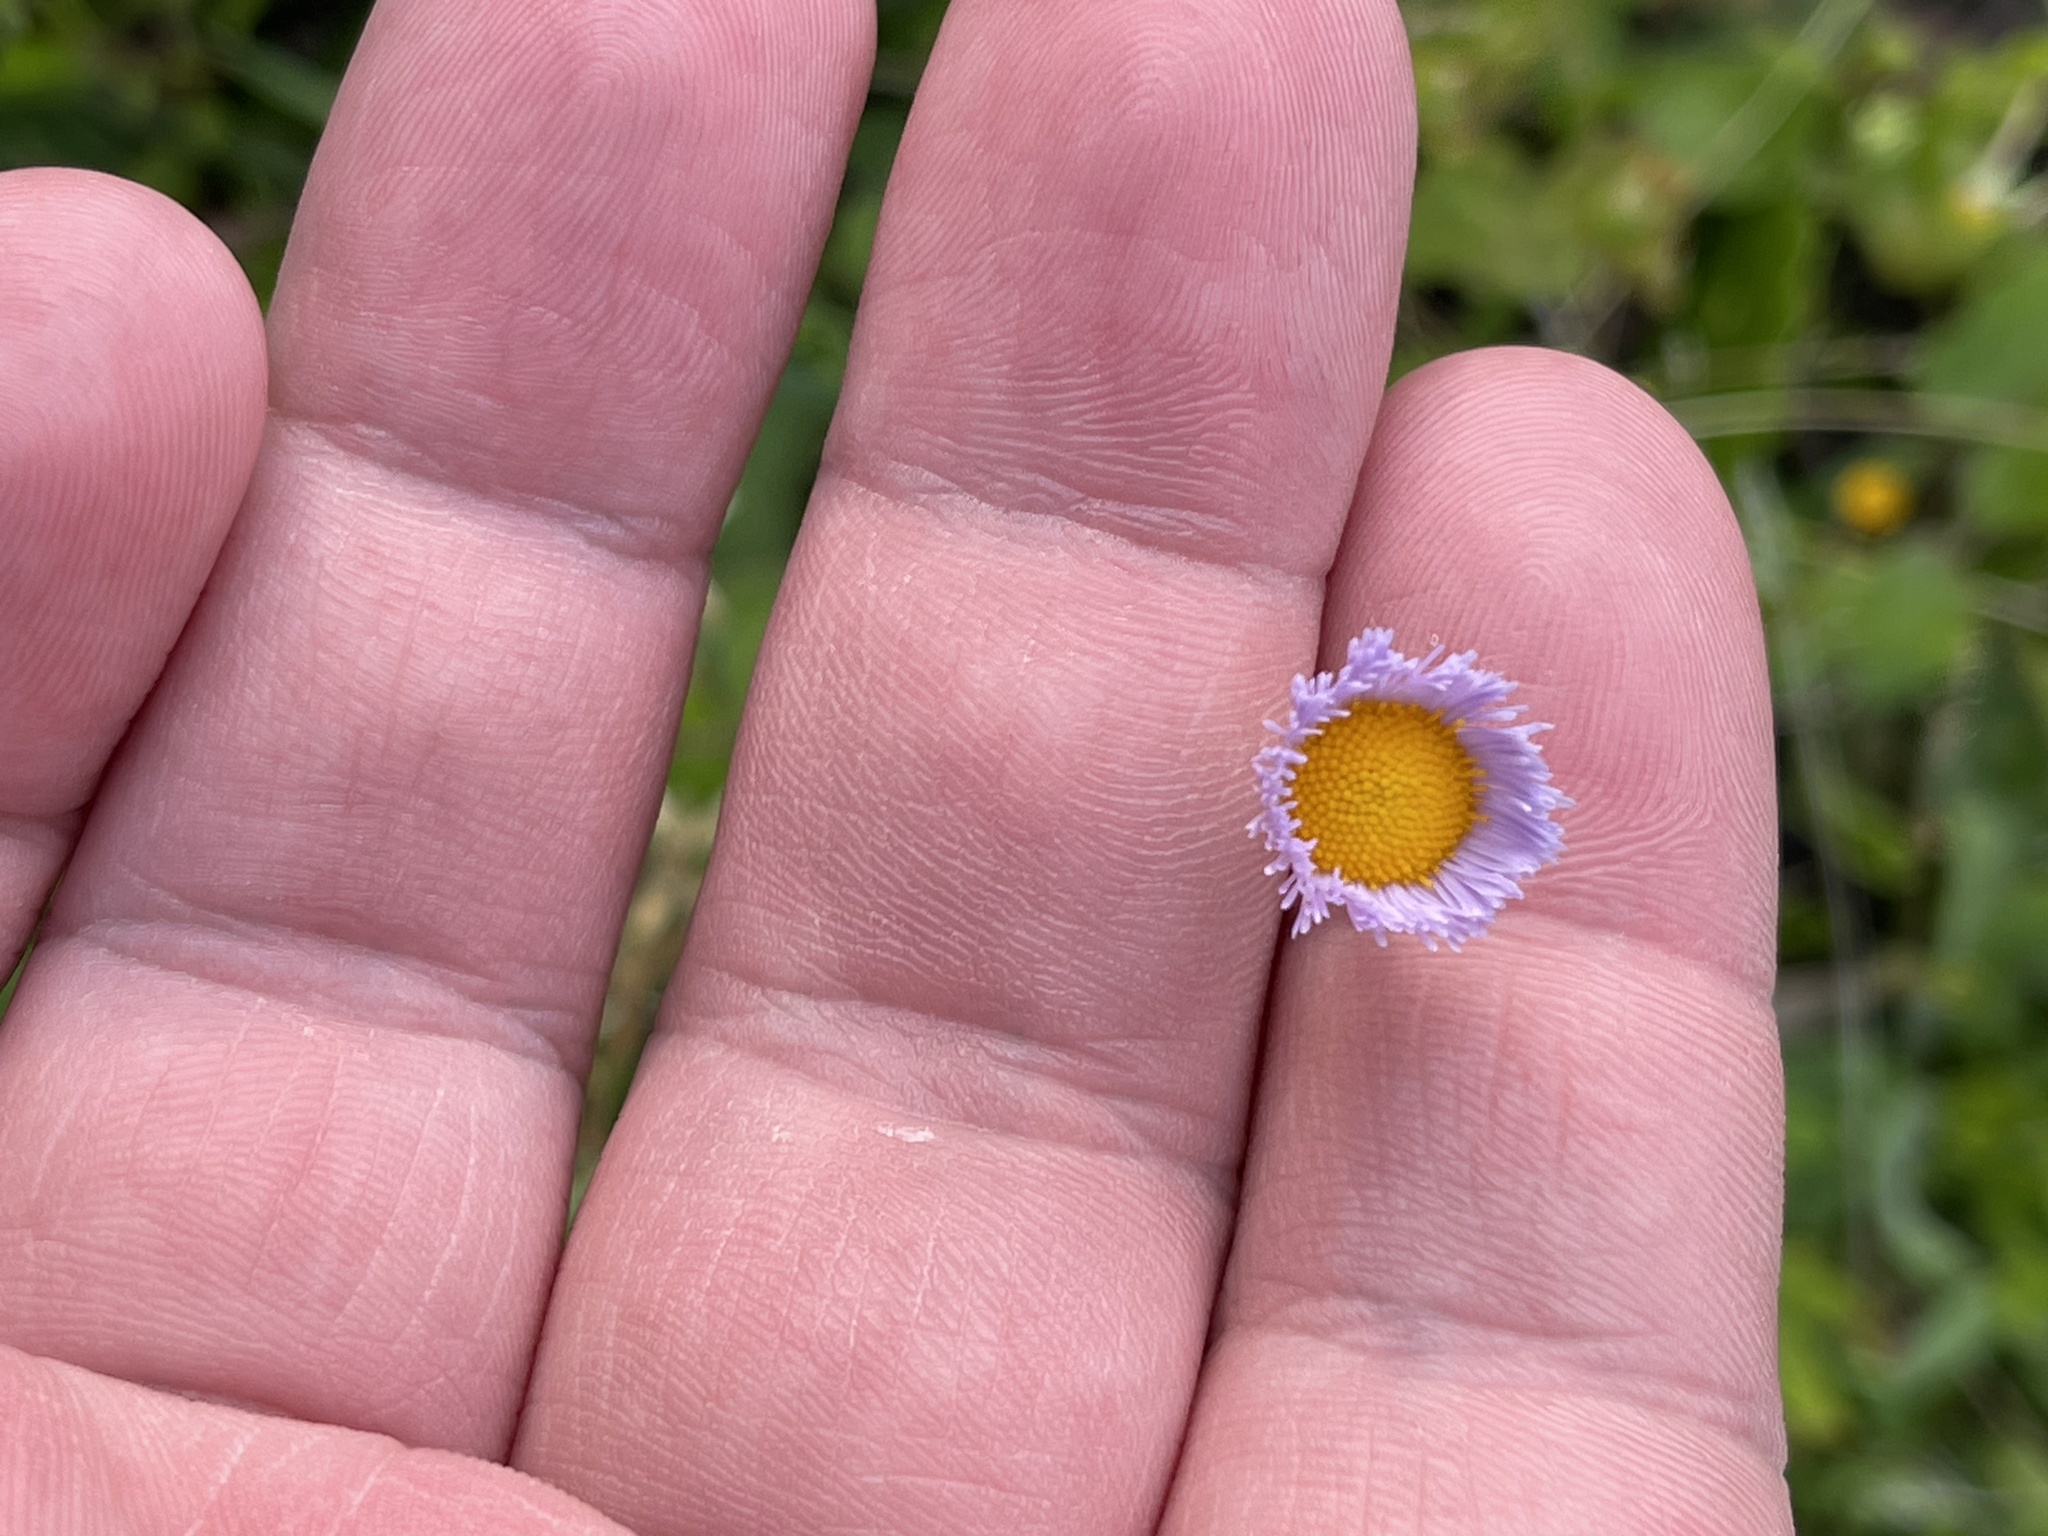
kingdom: Plantae
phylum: Tracheophyta
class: Magnoliopsida
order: Asterales
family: Asteraceae
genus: Erigeron
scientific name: Erigeron quercifolius
